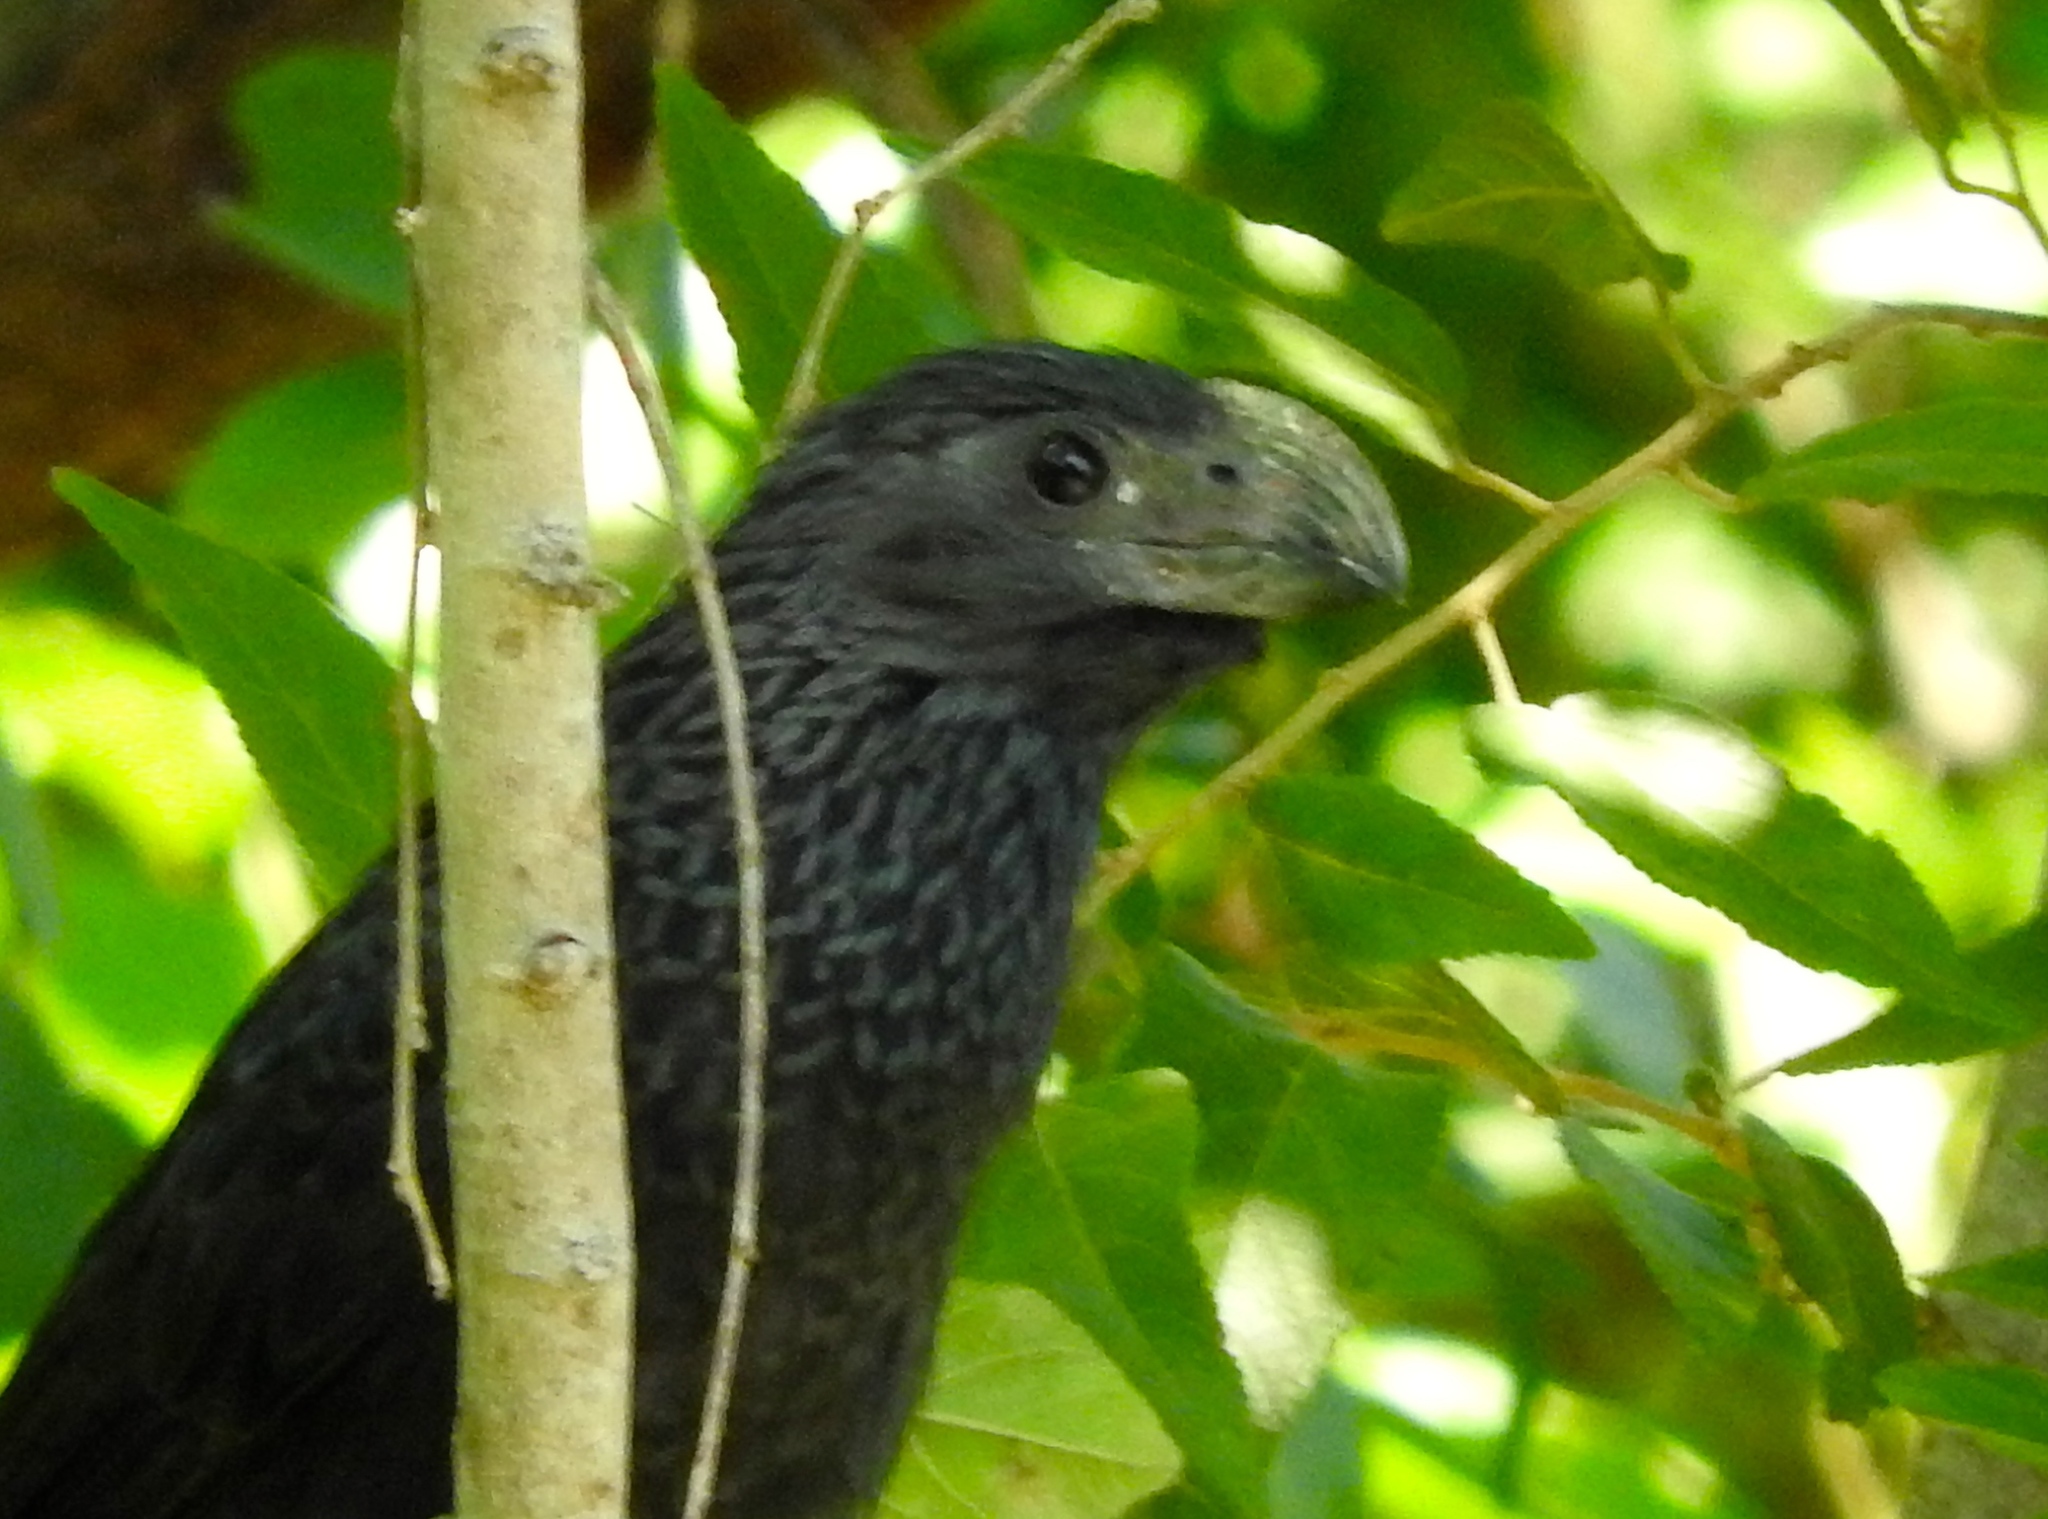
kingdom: Animalia
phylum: Chordata
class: Aves
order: Cuculiformes
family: Cuculidae
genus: Crotophaga
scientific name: Crotophaga sulcirostris
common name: Groove-billed ani
